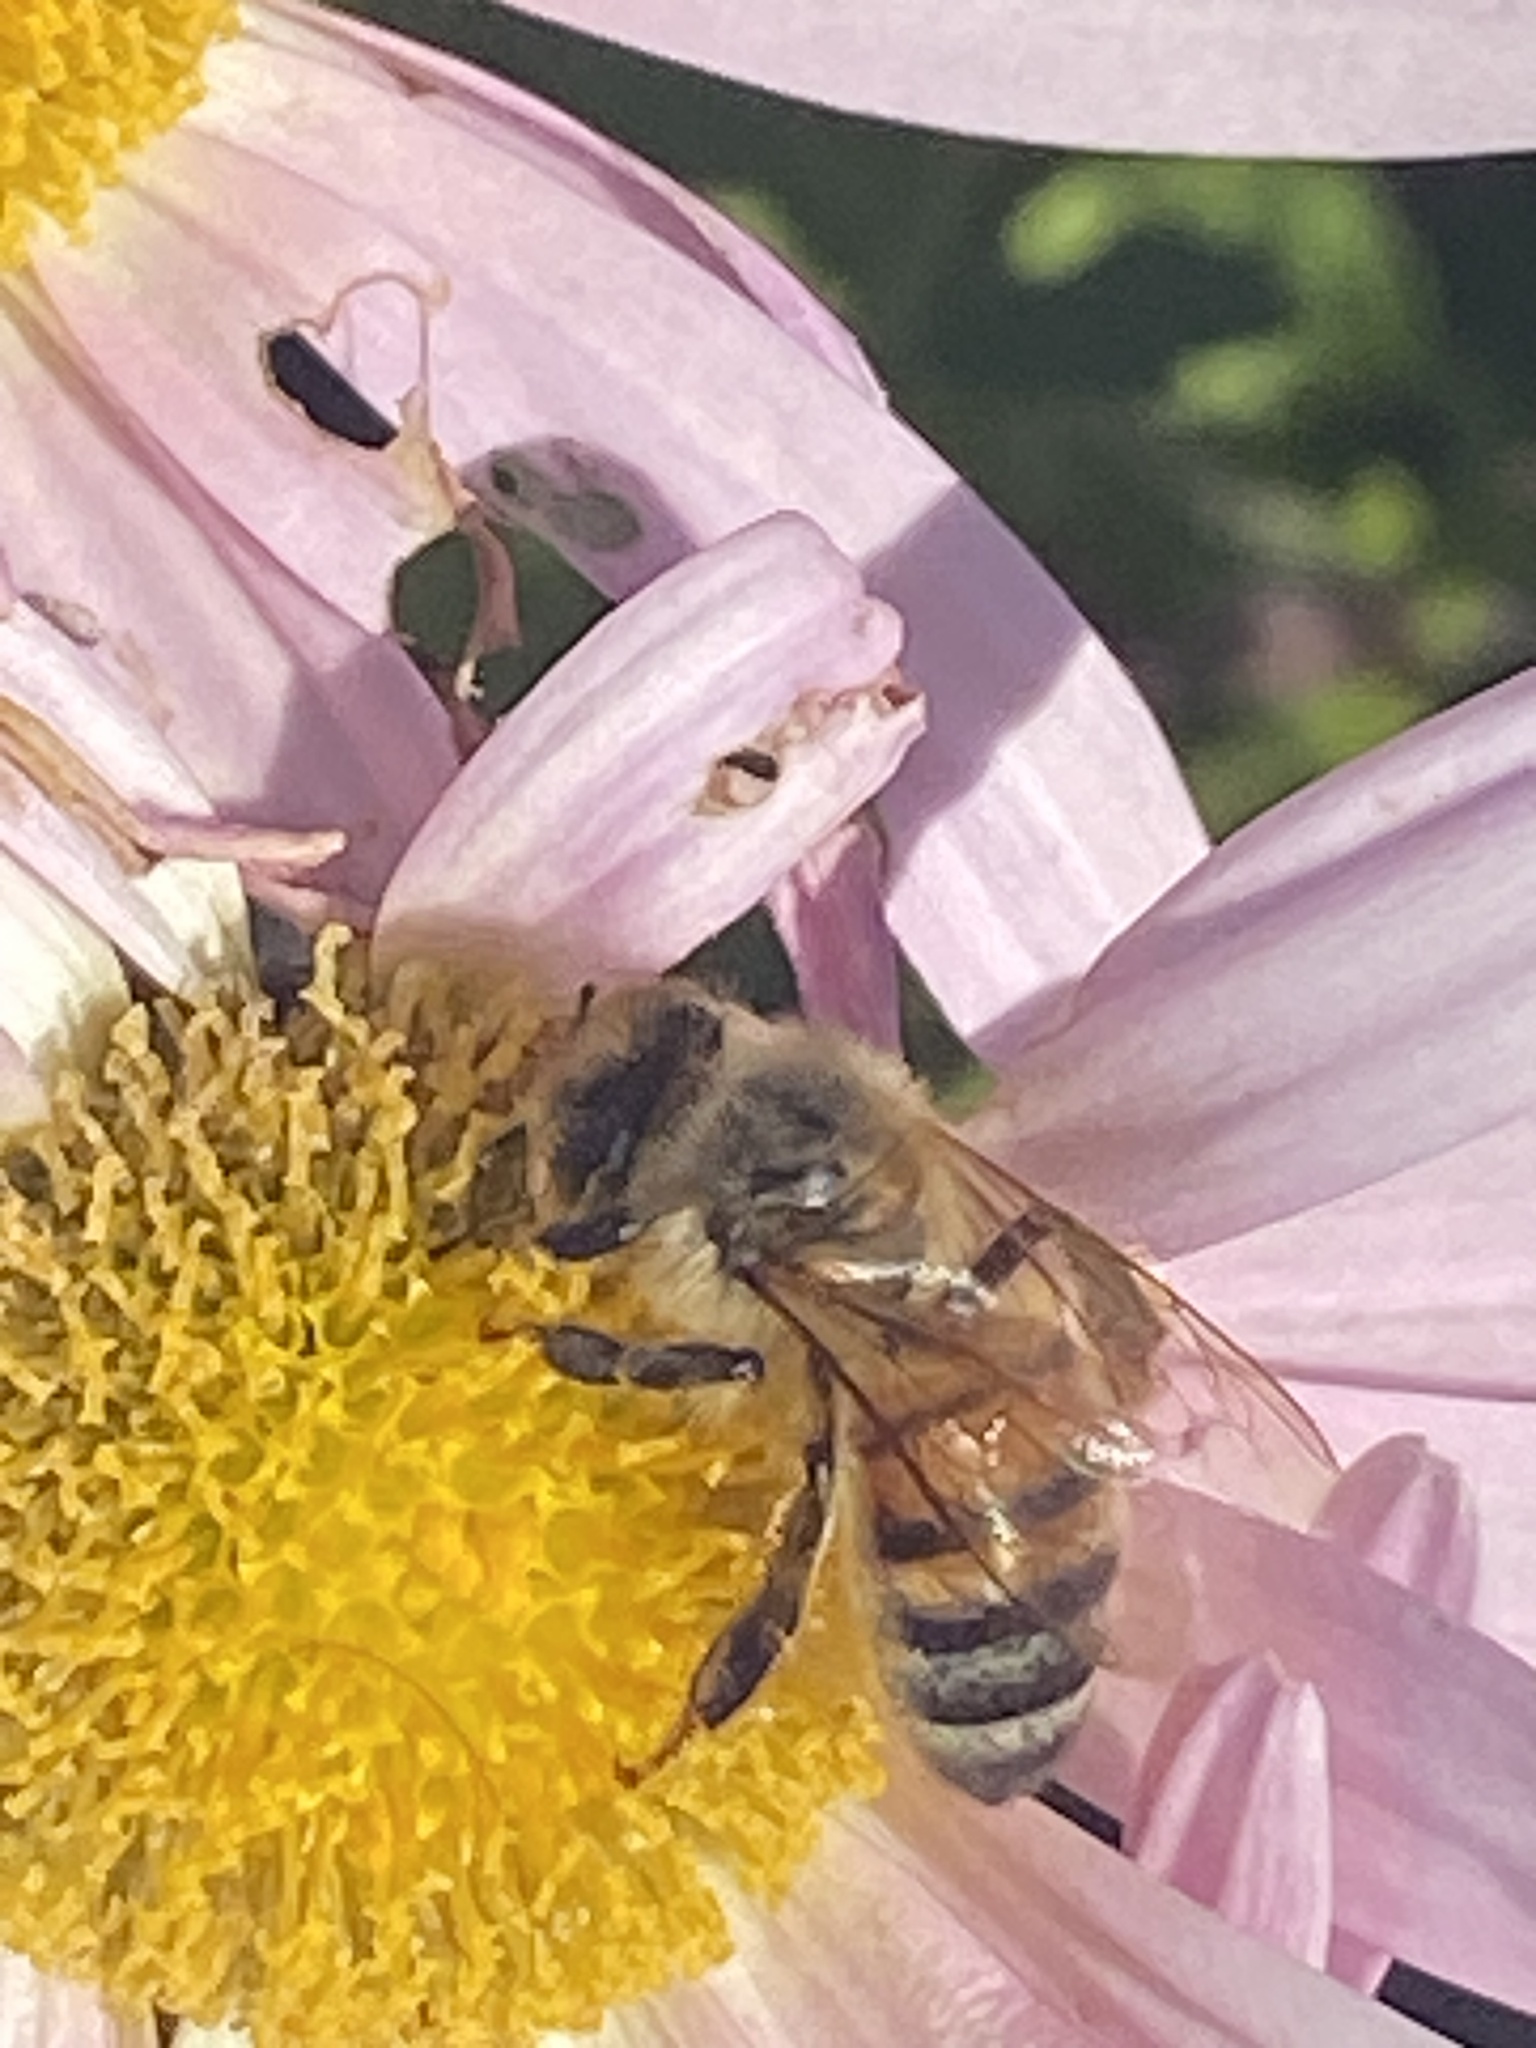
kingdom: Animalia
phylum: Arthropoda
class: Insecta
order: Hymenoptera
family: Apidae
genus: Apis
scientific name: Apis mellifera
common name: Honey bee
